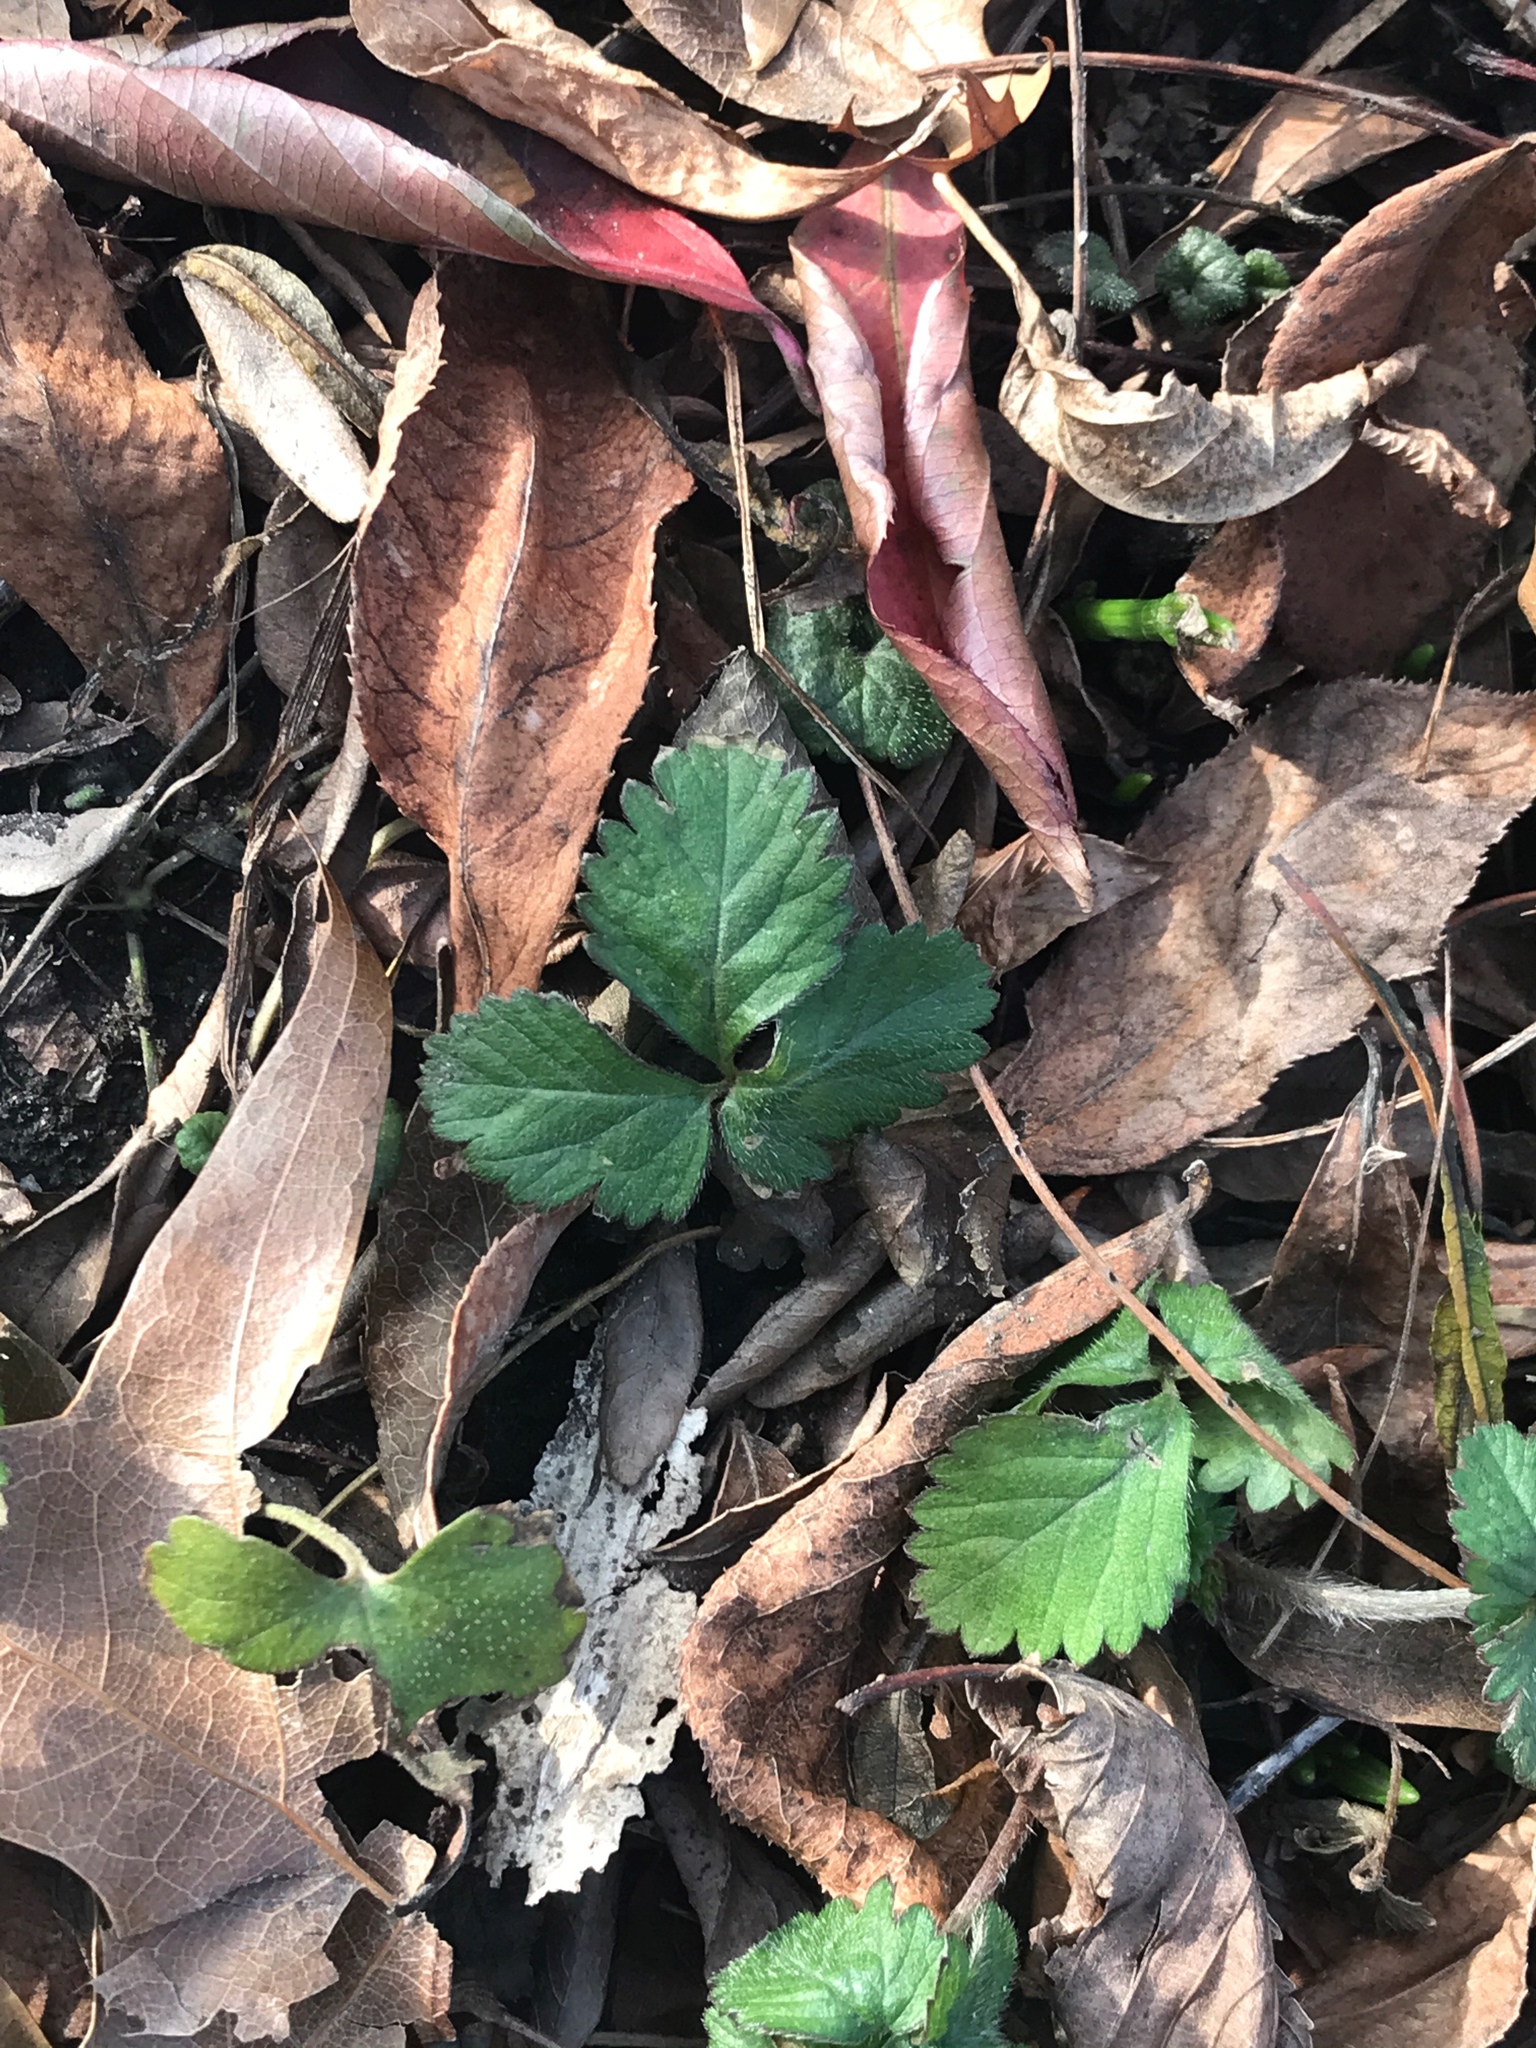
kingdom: Plantae
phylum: Tracheophyta
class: Magnoliopsida
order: Rosales
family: Rosaceae
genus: Potentilla
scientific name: Potentilla indica
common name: Yellow-flowered strawberry
